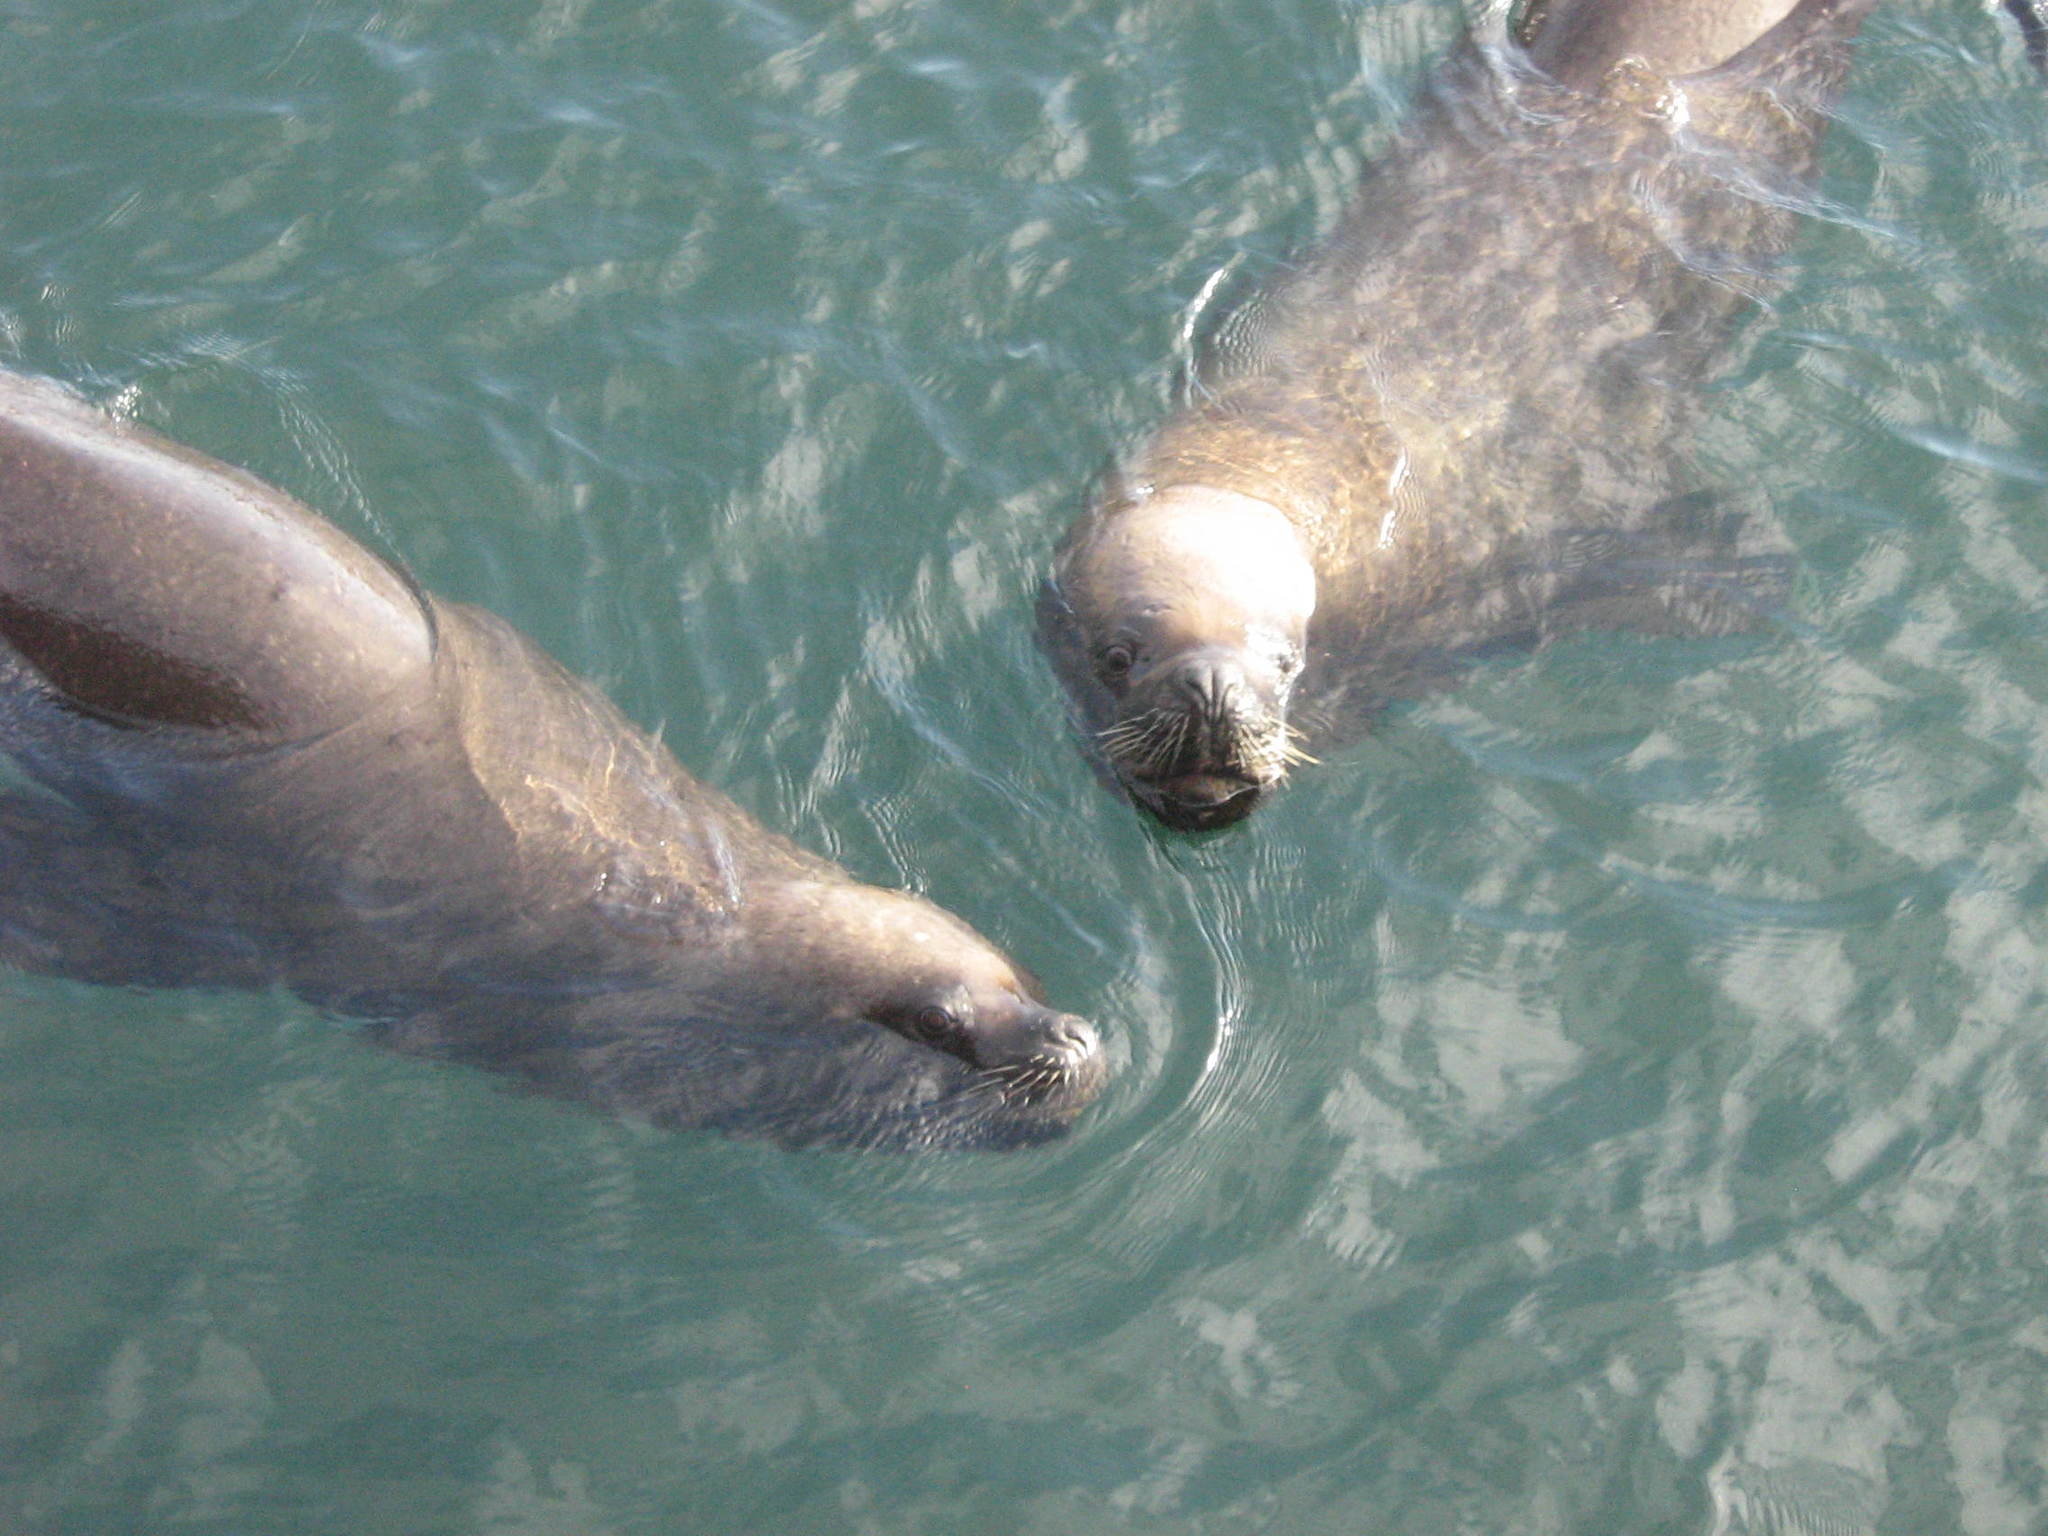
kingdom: Animalia
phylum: Chordata
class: Mammalia
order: Carnivora
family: Otariidae
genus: Otaria
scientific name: Otaria byronia
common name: South american sea lion
